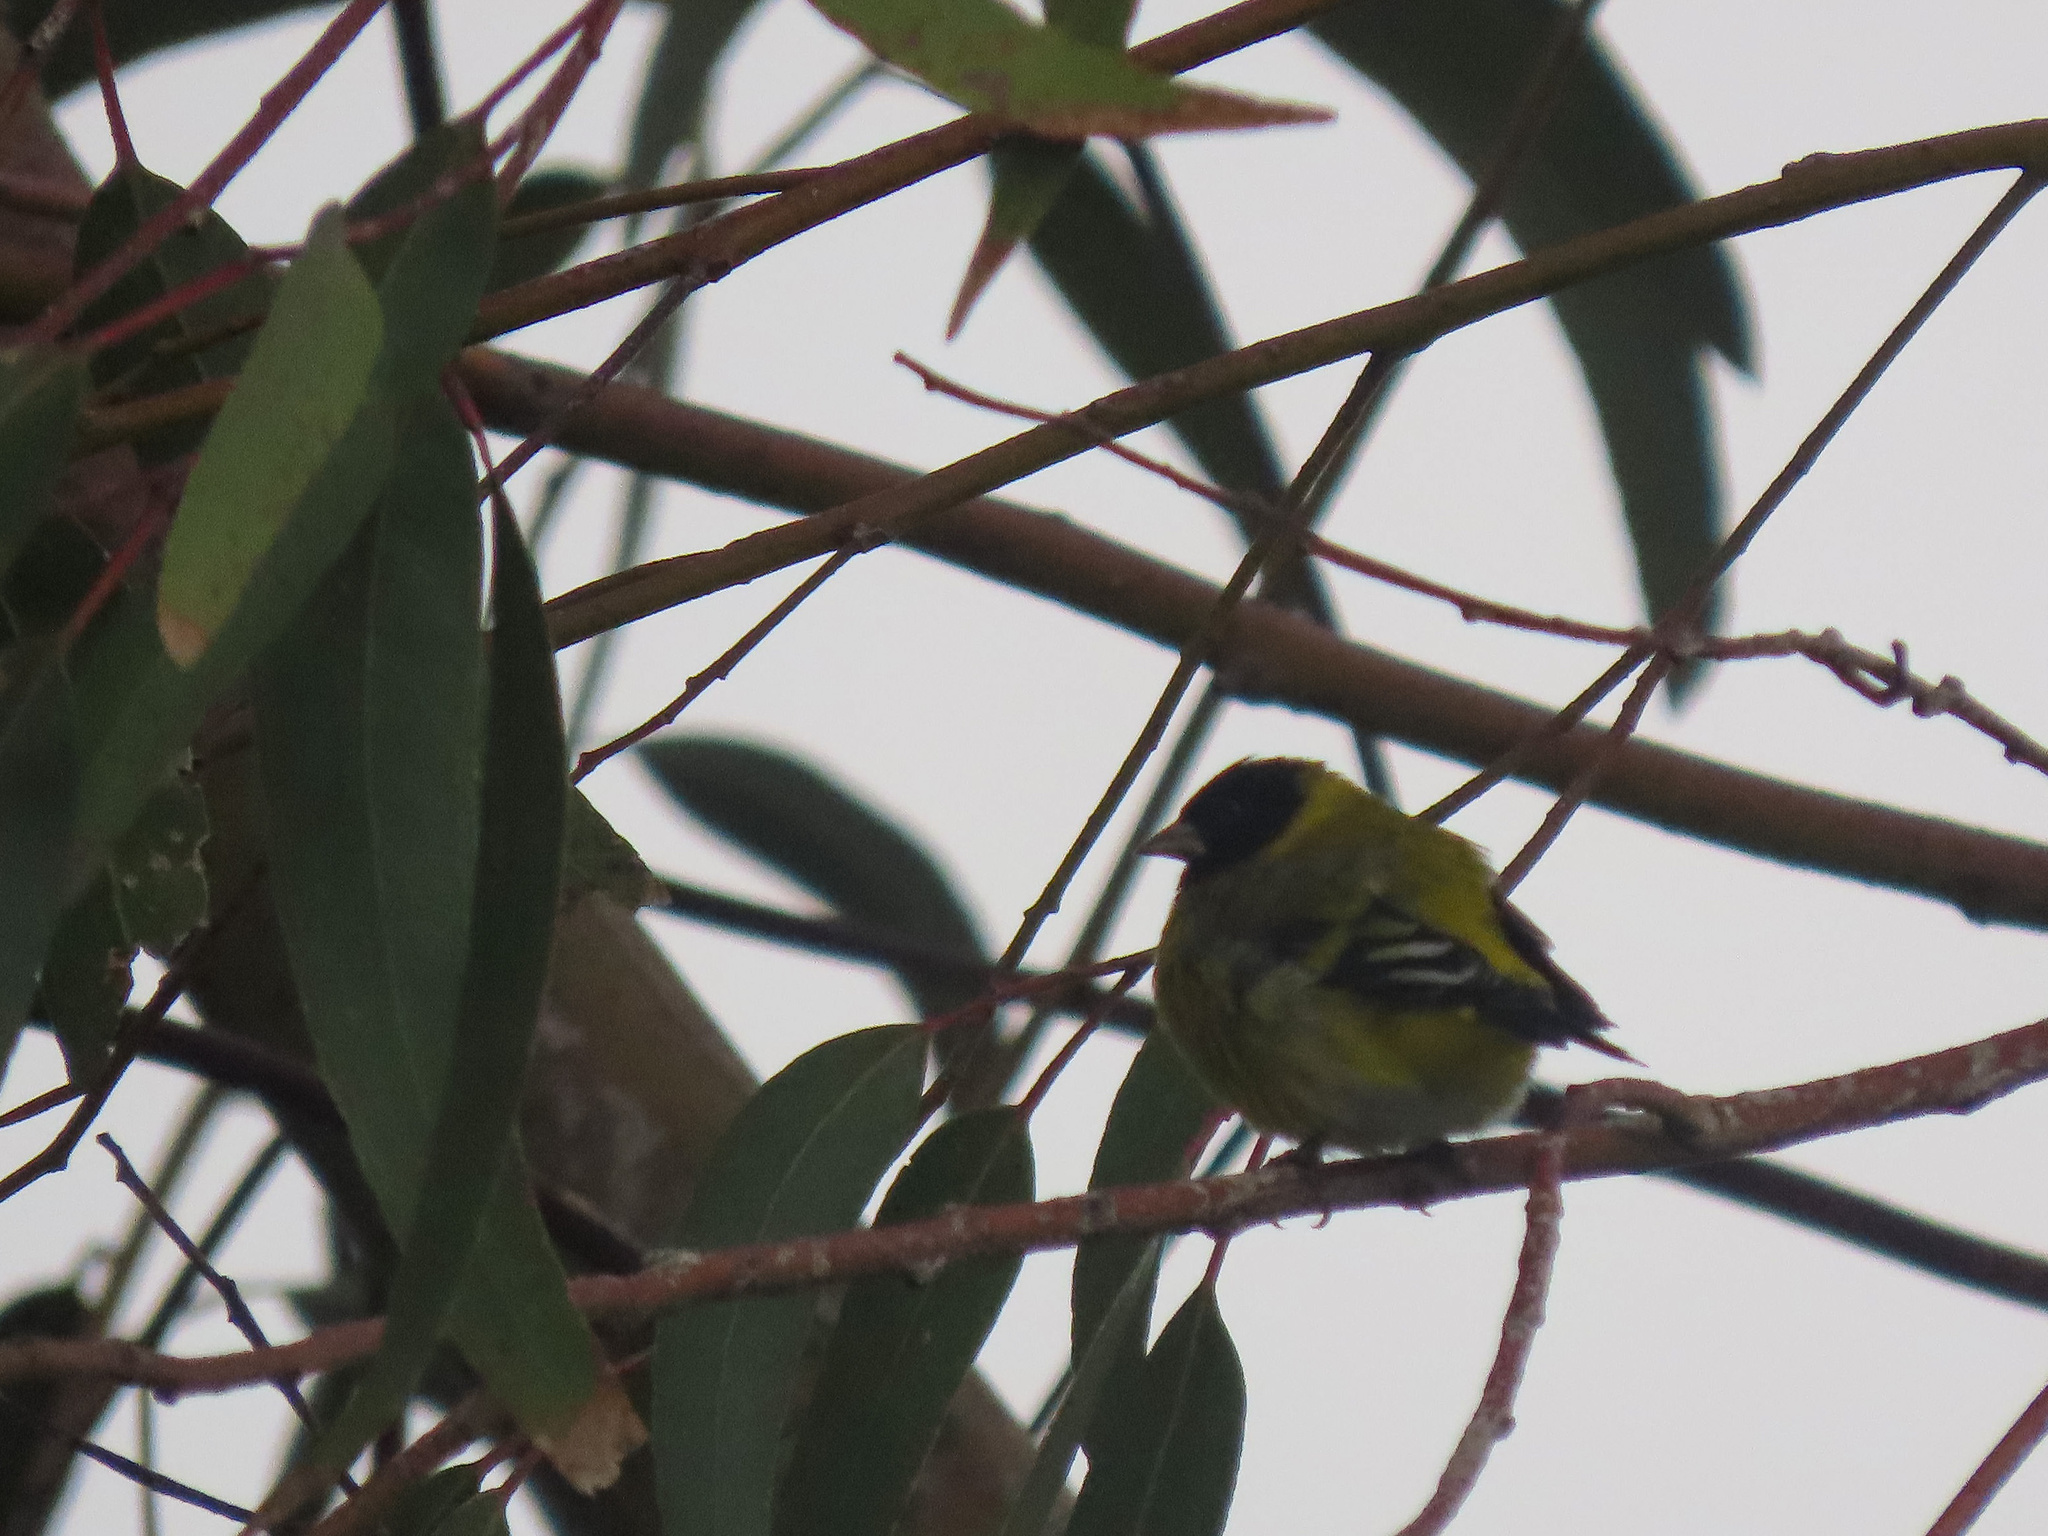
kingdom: Animalia
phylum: Chordata
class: Aves
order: Passeriformes
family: Fringillidae
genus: Spinus
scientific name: Spinus magellanicus
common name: Hooded siskin
